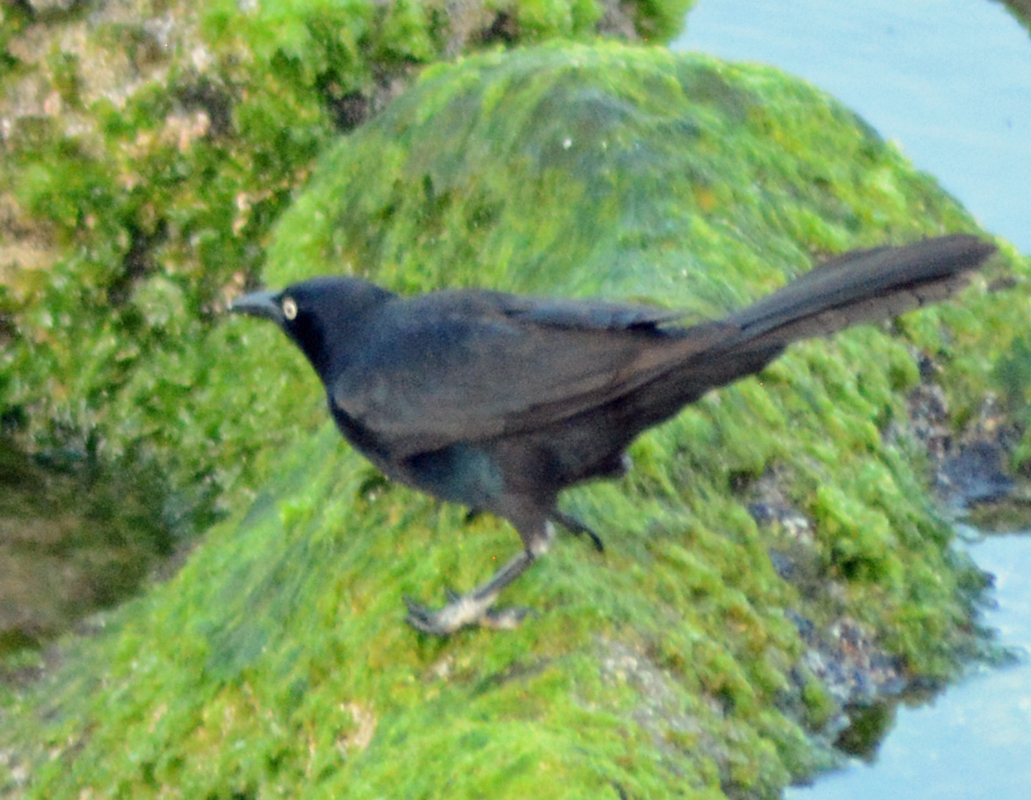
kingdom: Animalia
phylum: Chordata
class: Aves
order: Passeriformes
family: Icteridae
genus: Quiscalus
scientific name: Quiscalus mexicanus
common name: Great-tailed grackle
